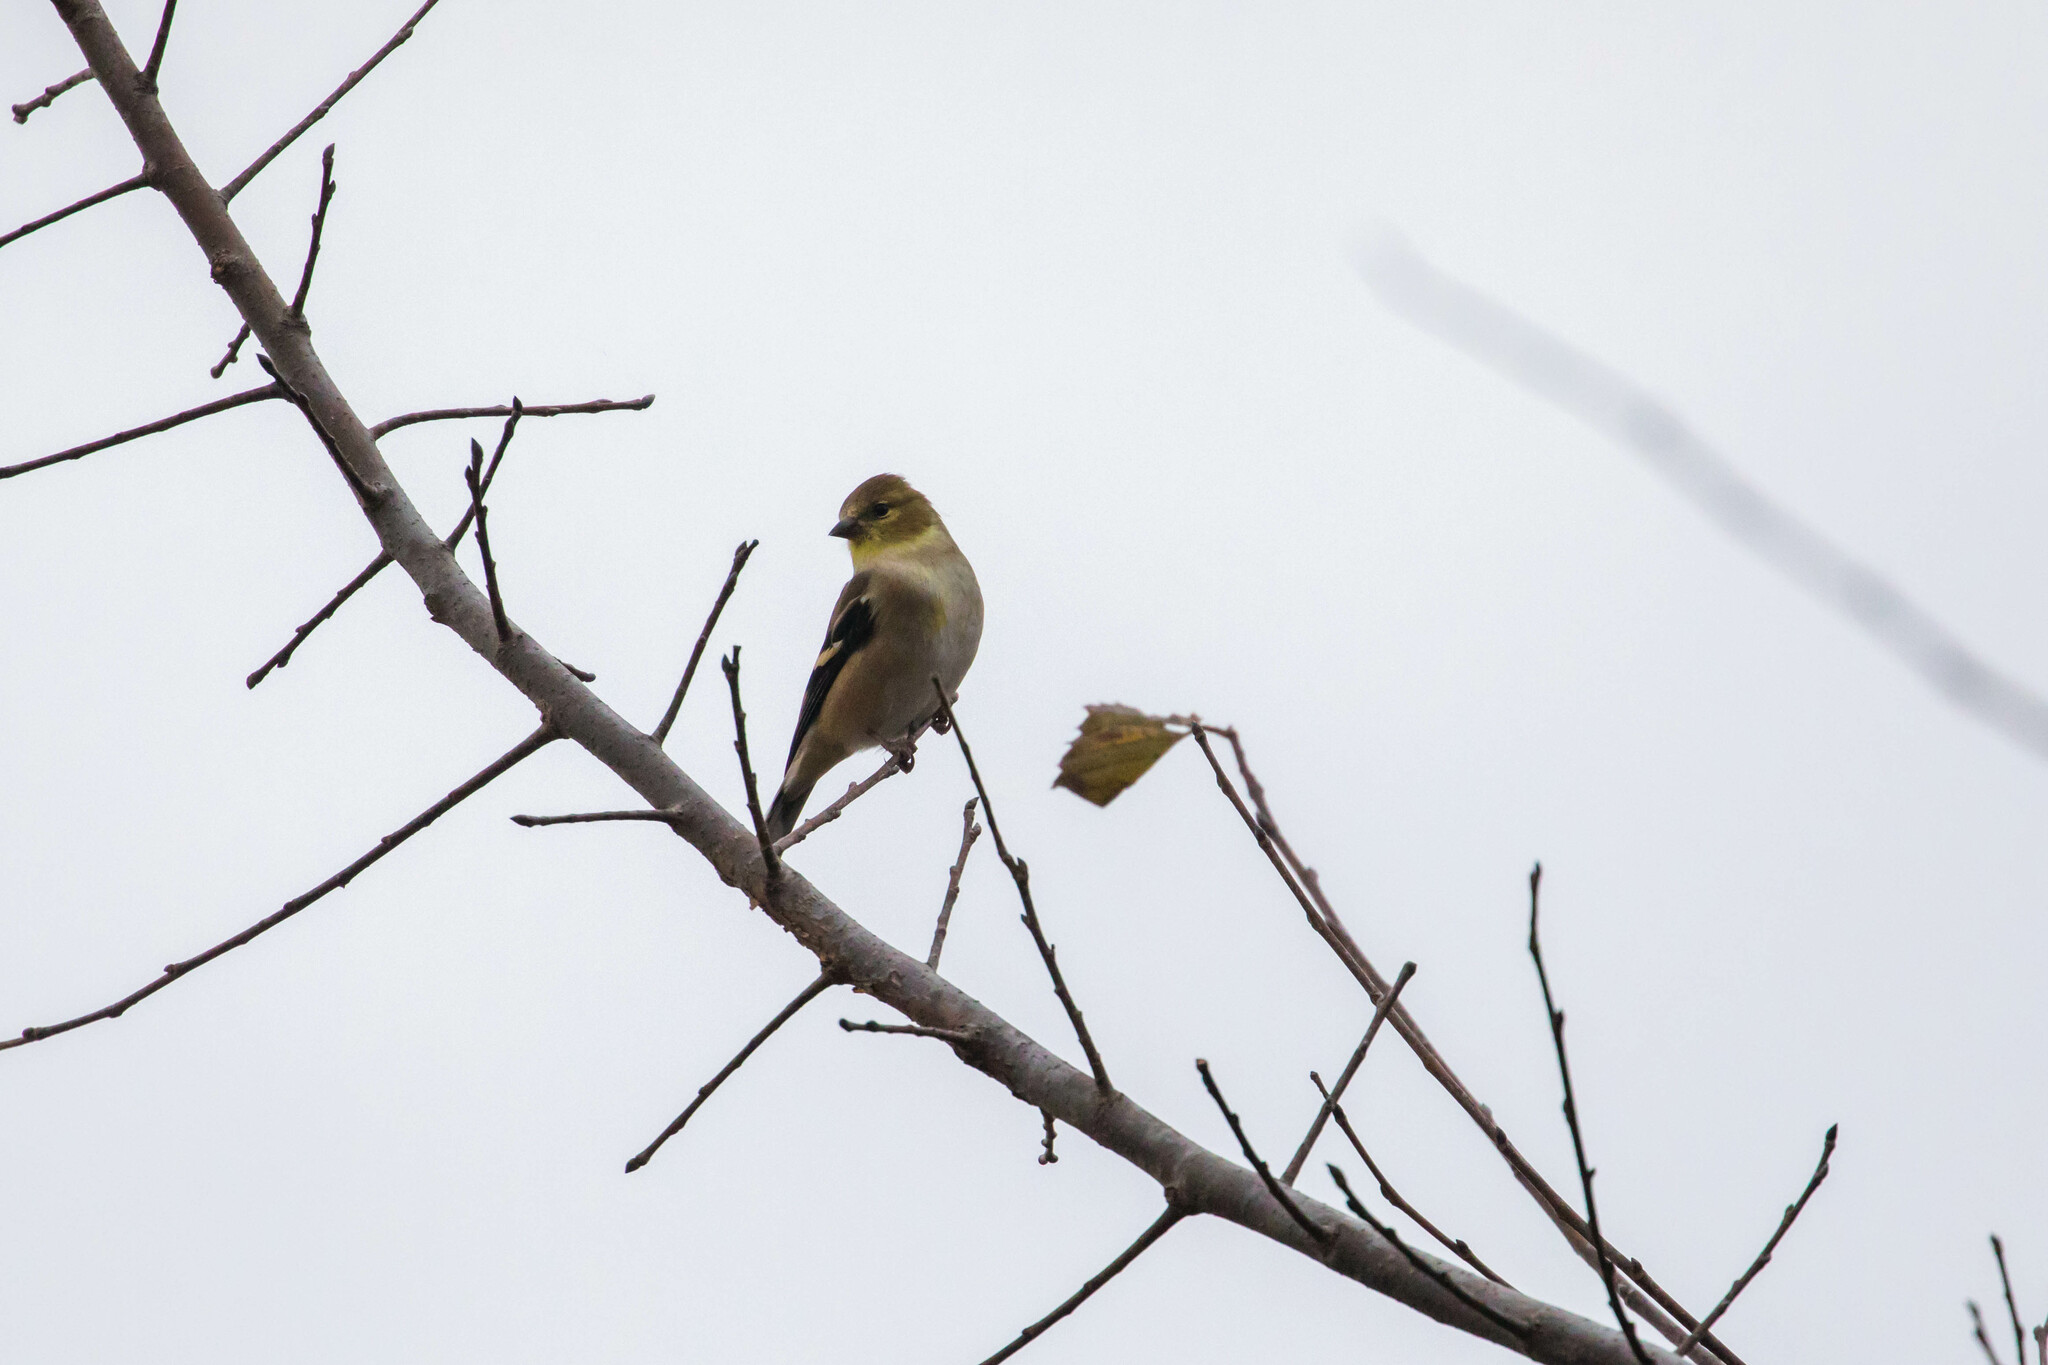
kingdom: Animalia
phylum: Chordata
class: Aves
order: Passeriformes
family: Fringillidae
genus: Spinus
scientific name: Spinus tristis
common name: American goldfinch
